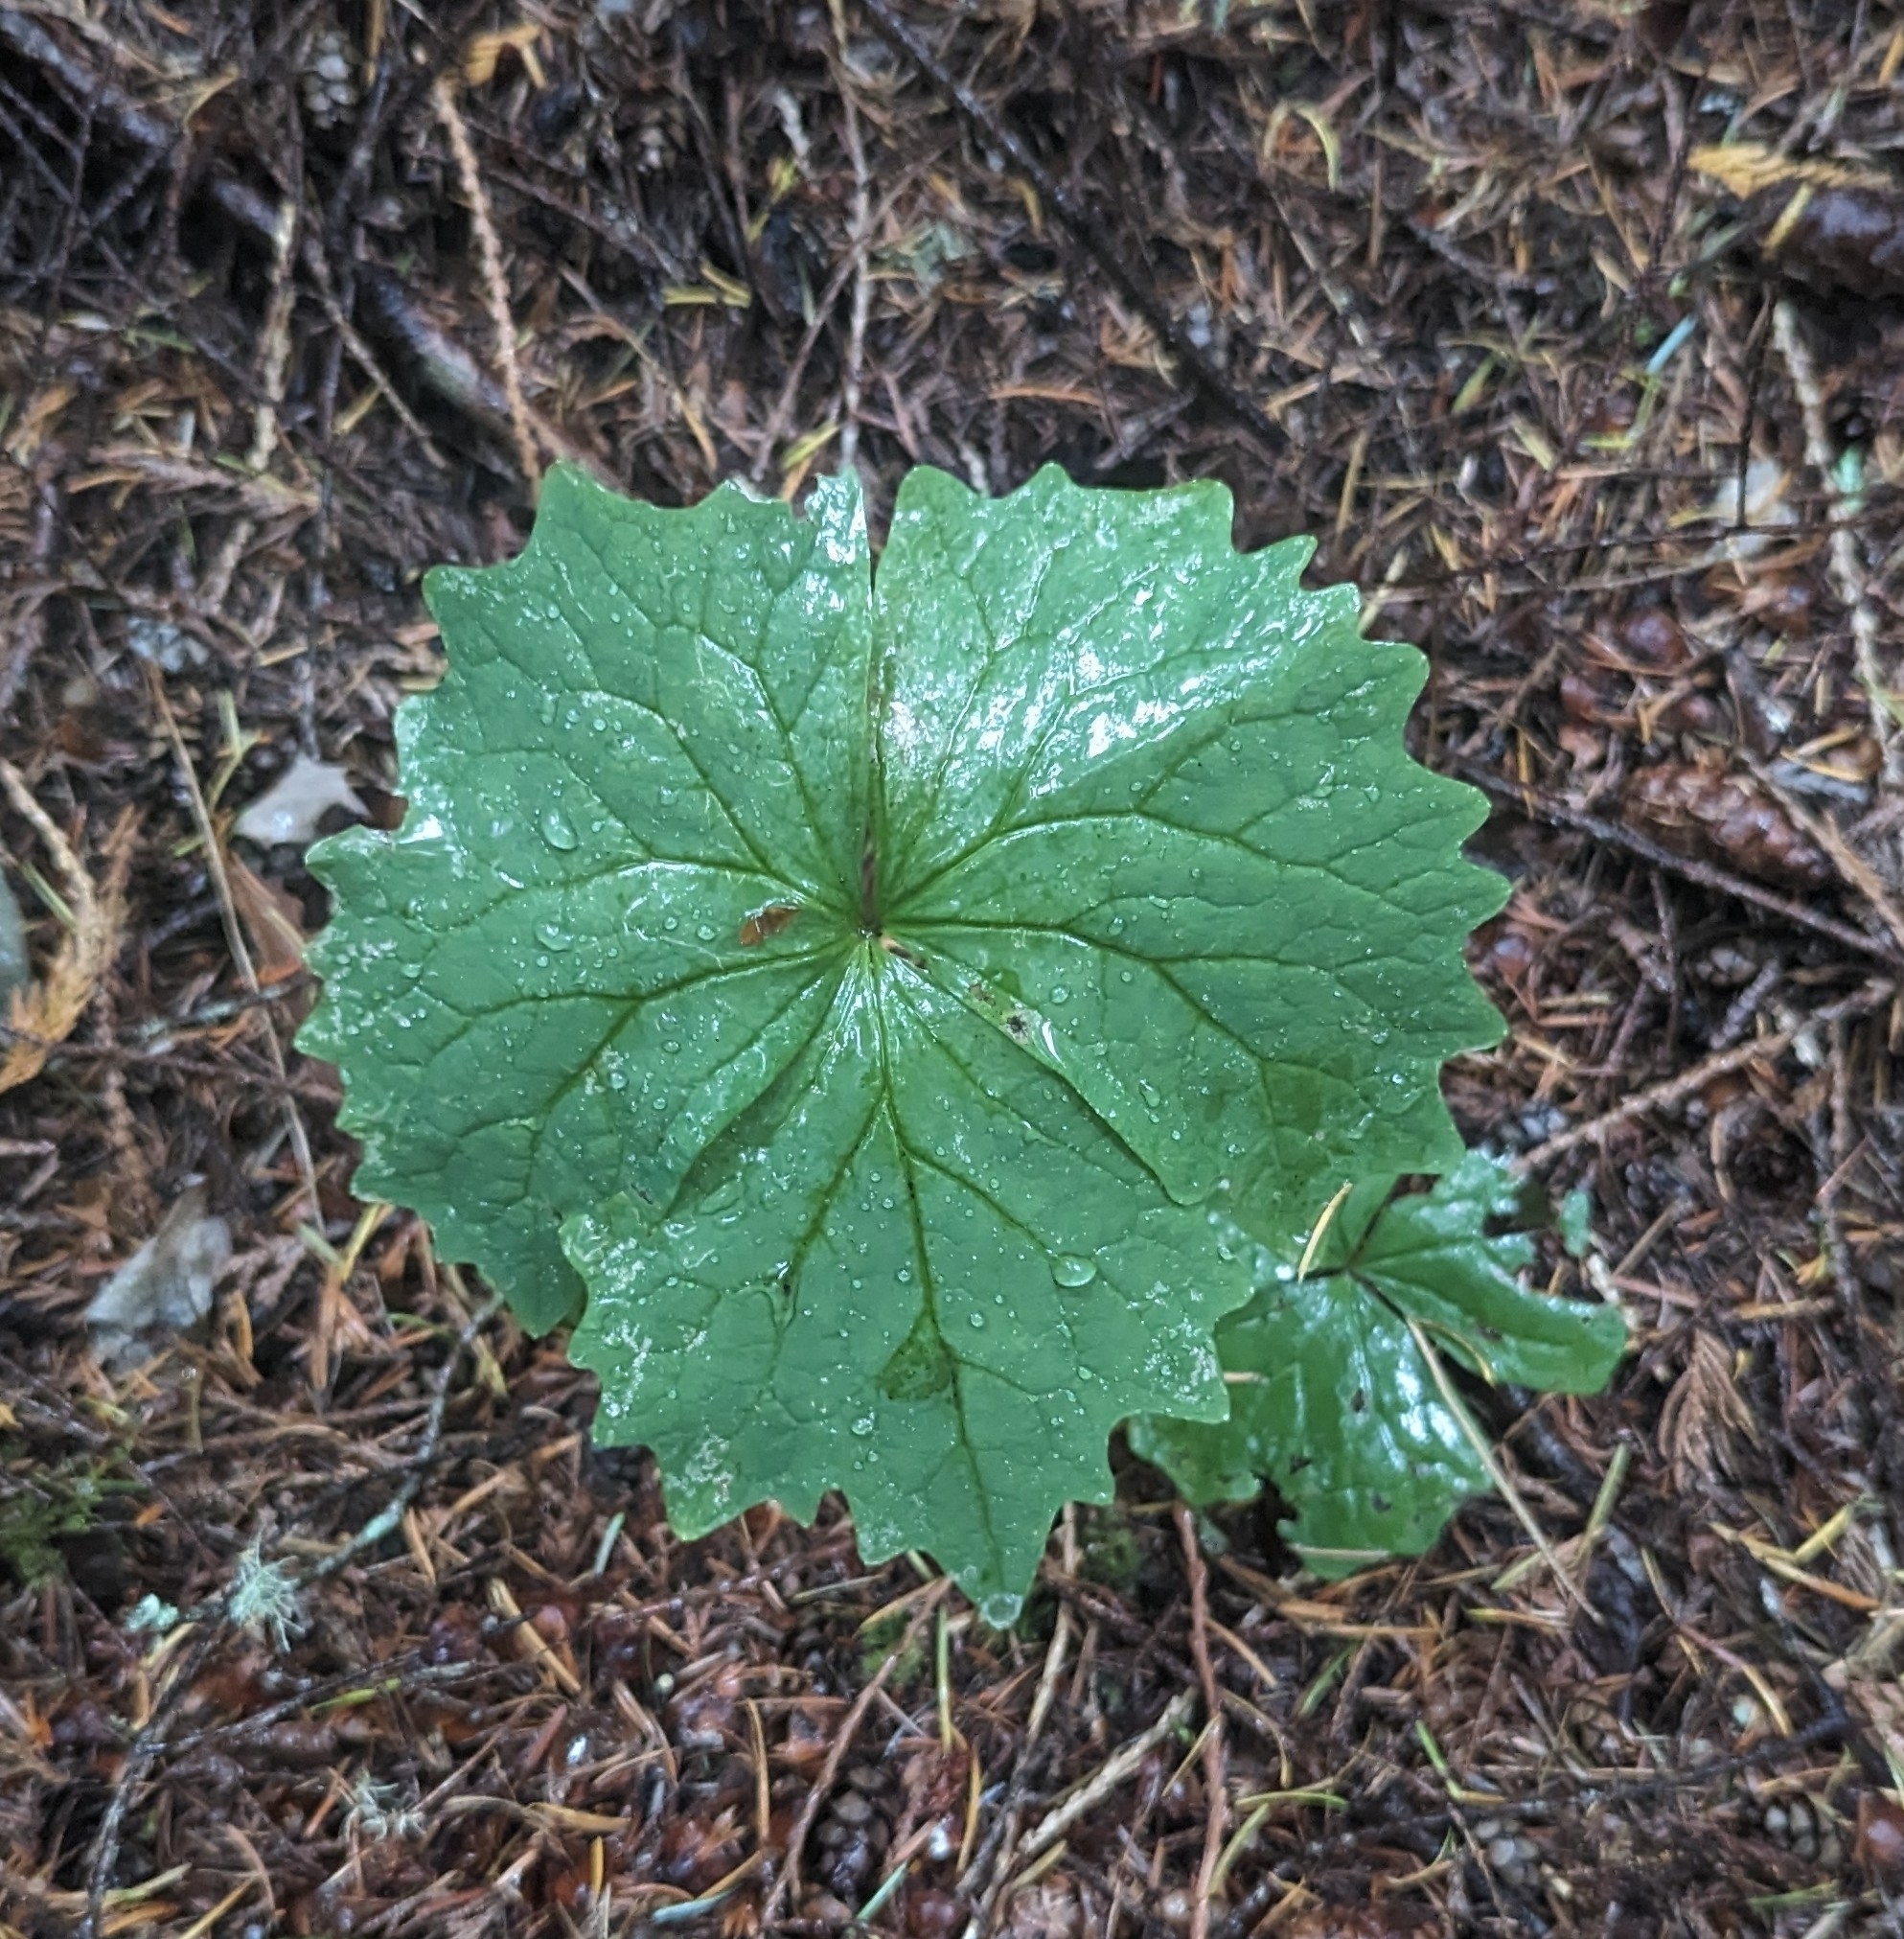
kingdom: Plantae
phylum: Tracheophyta
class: Magnoliopsida
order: Ranunculales
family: Berberidaceae
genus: Achlys
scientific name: Achlys californica
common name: California deer-foot
